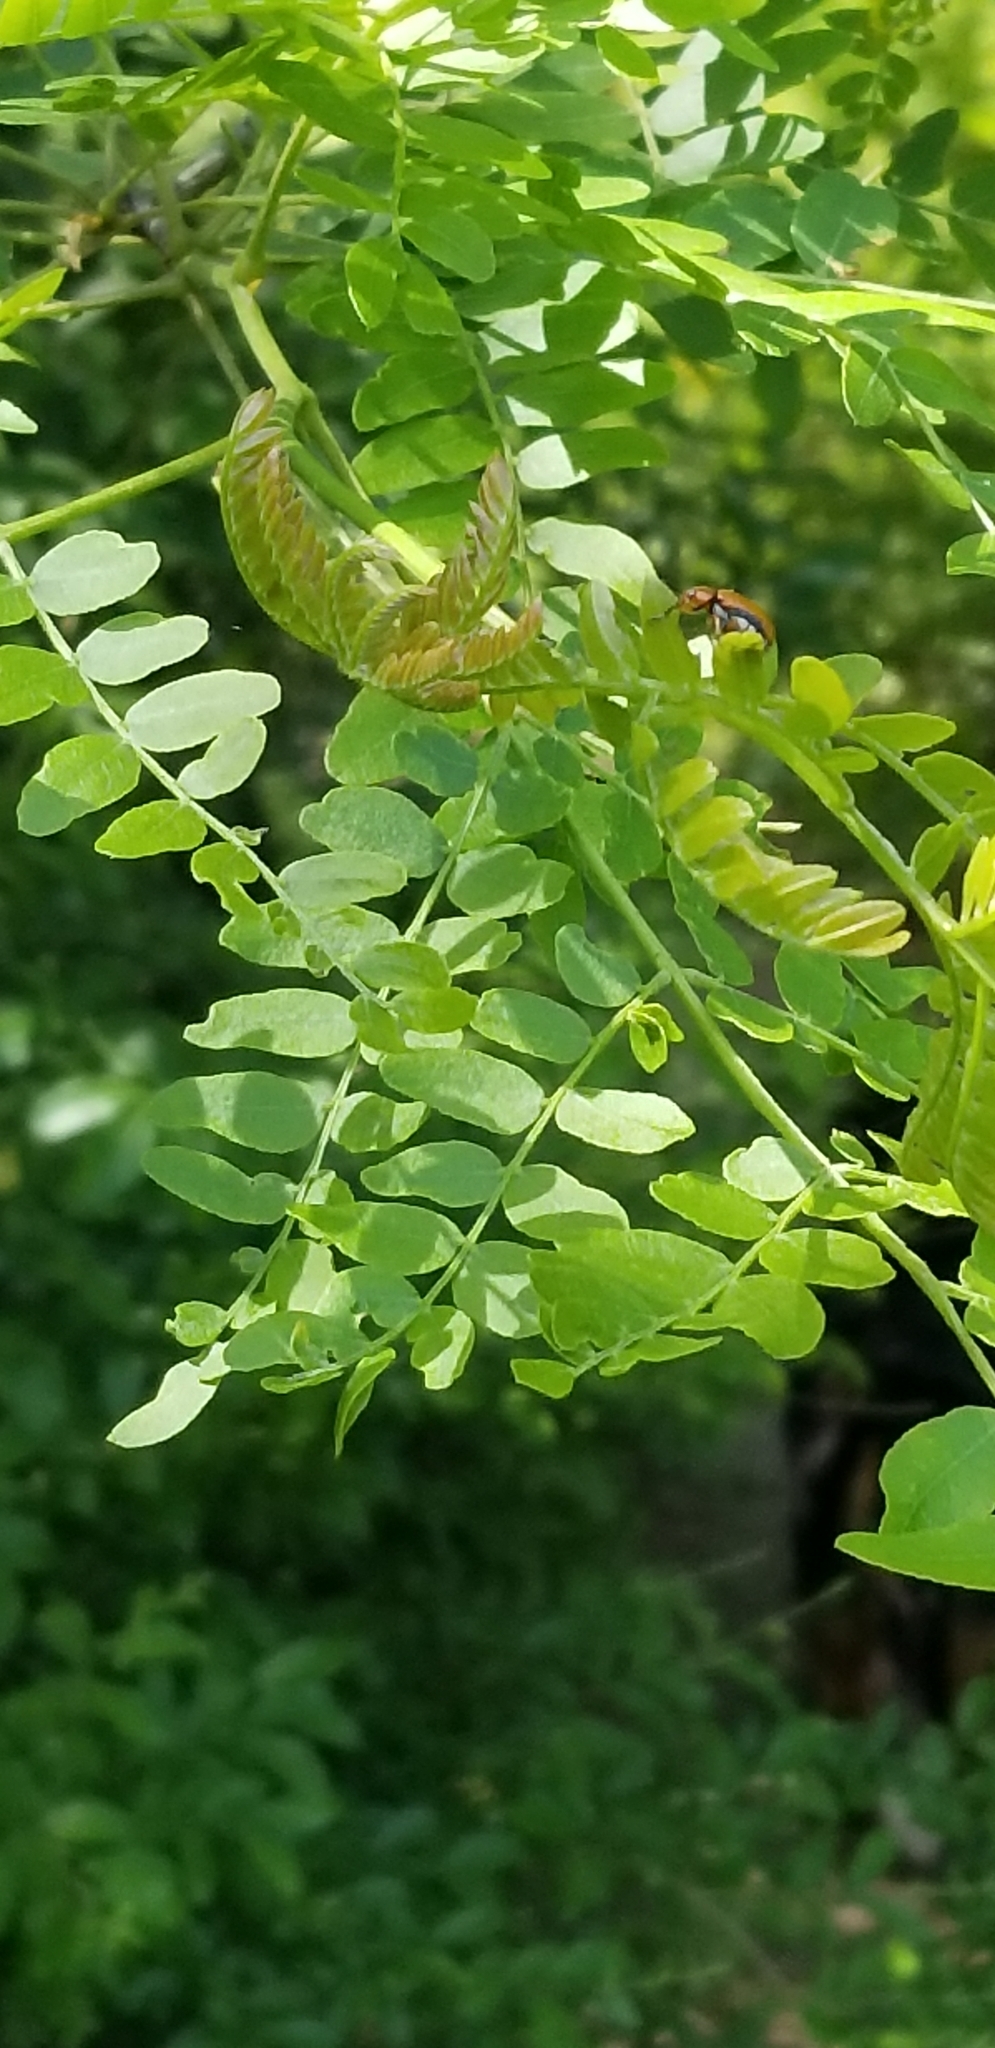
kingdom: Plantae
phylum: Tracheophyta
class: Magnoliopsida
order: Fabales
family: Fabaceae
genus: Gleditsia
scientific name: Gleditsia triacanthos
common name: Common honeylocust
